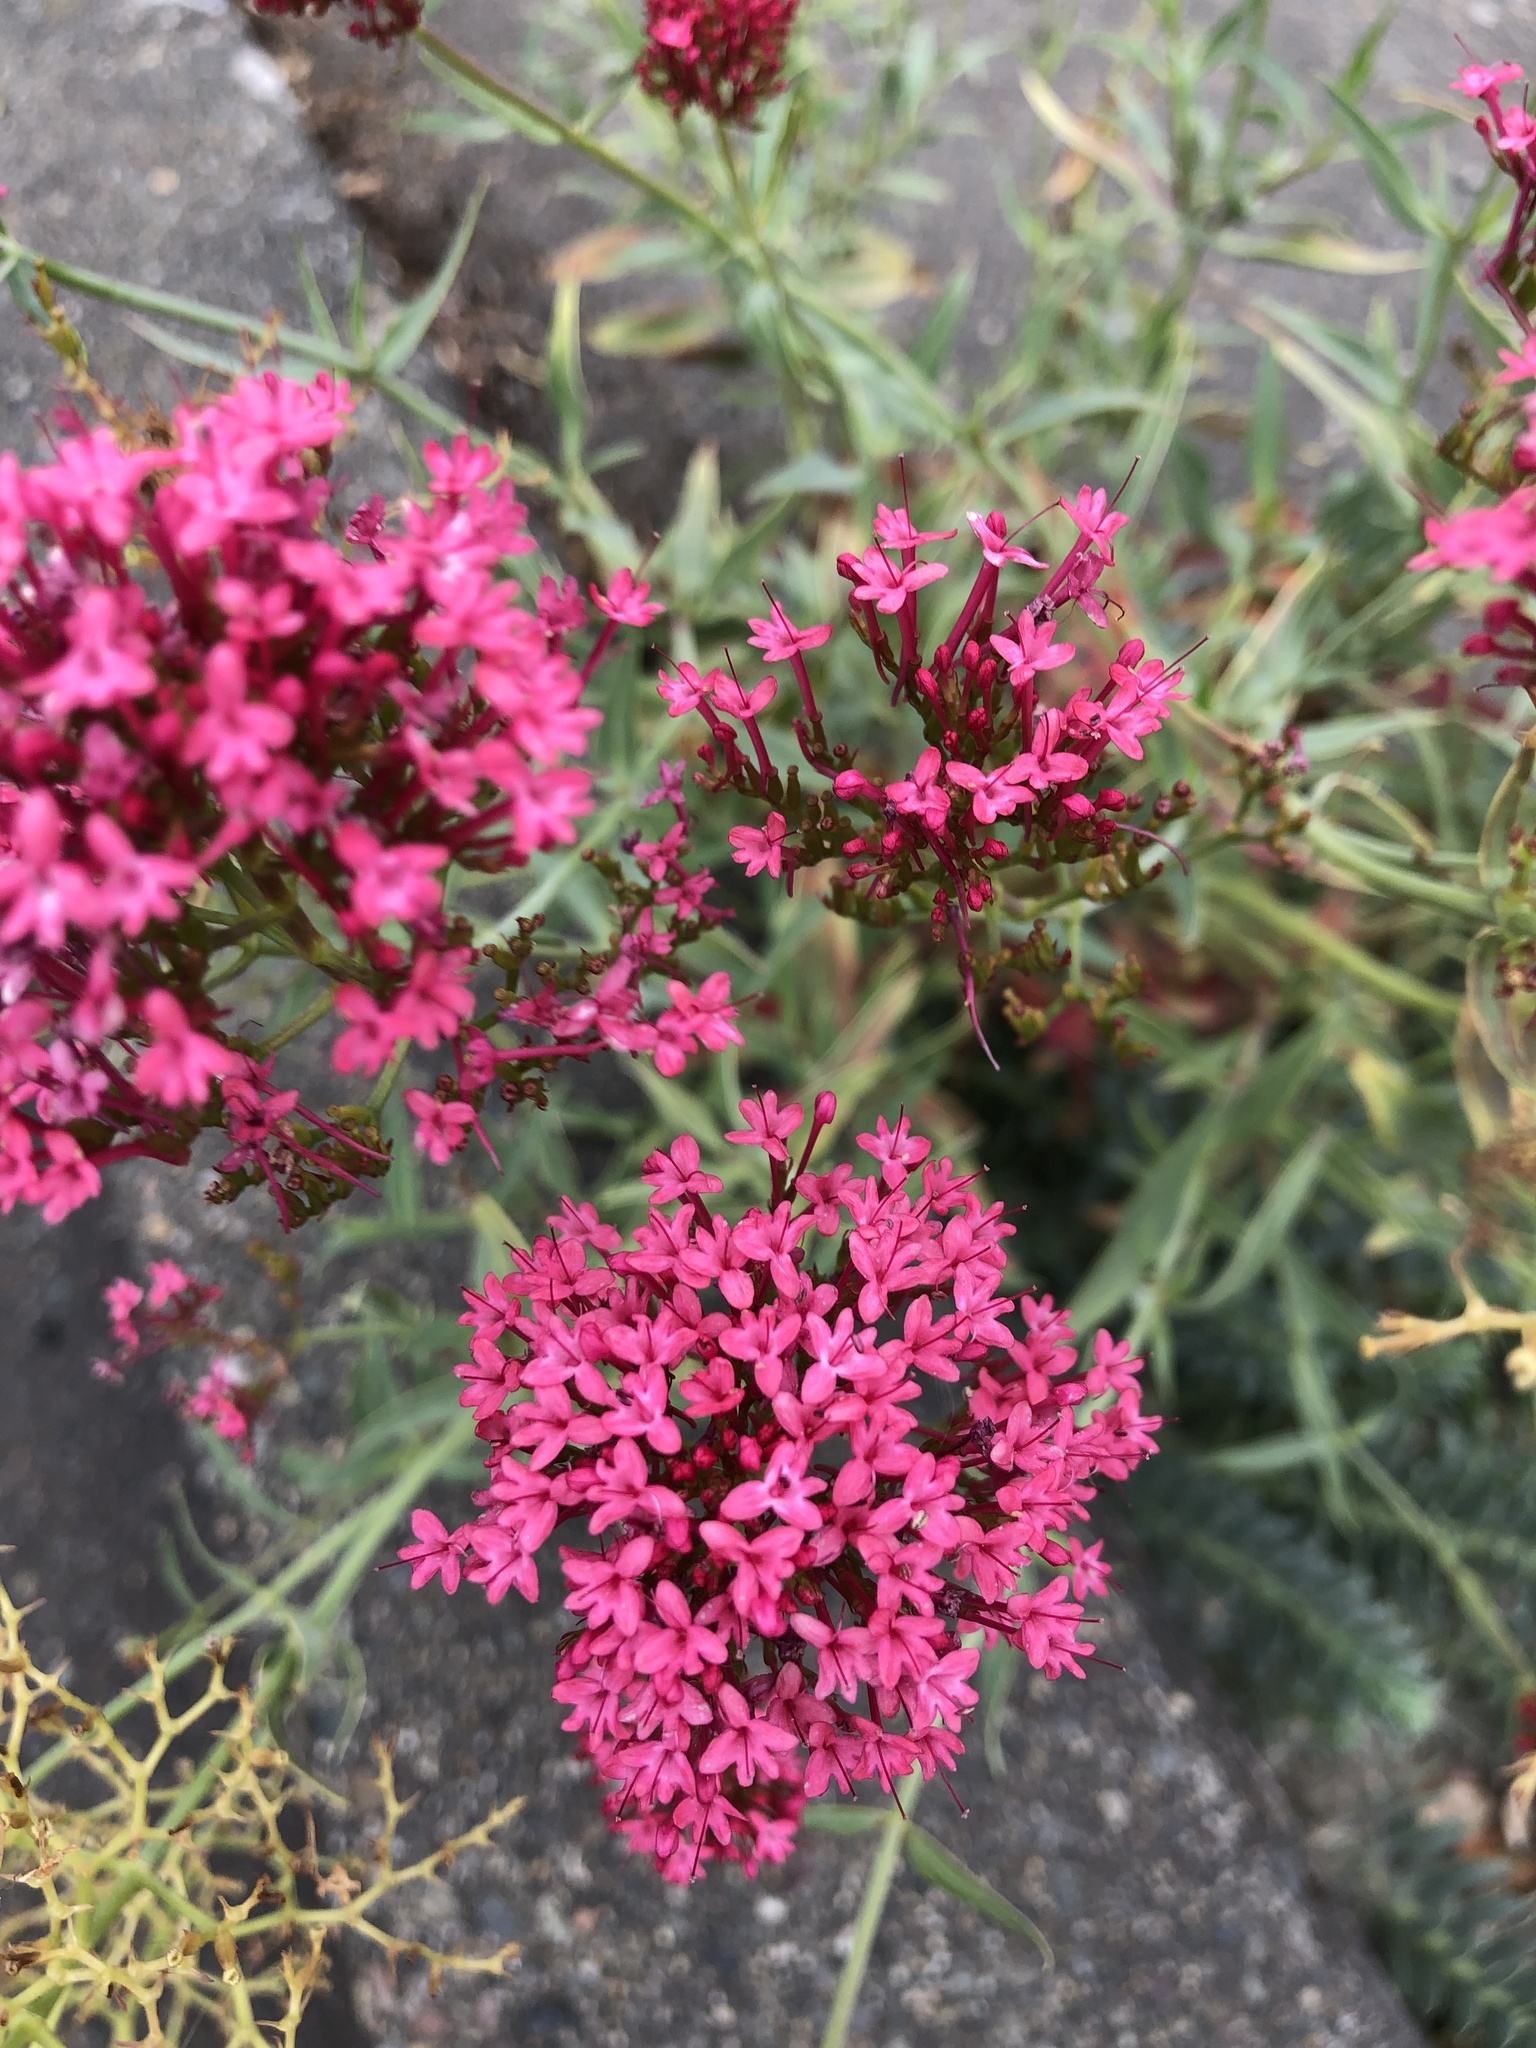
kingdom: Plantae
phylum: Tracheophyta
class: Magnoliopsida
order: Dipsacales
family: Caprifoliaceae
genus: Centranthus
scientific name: Centranthus ruber
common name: Red valerian
